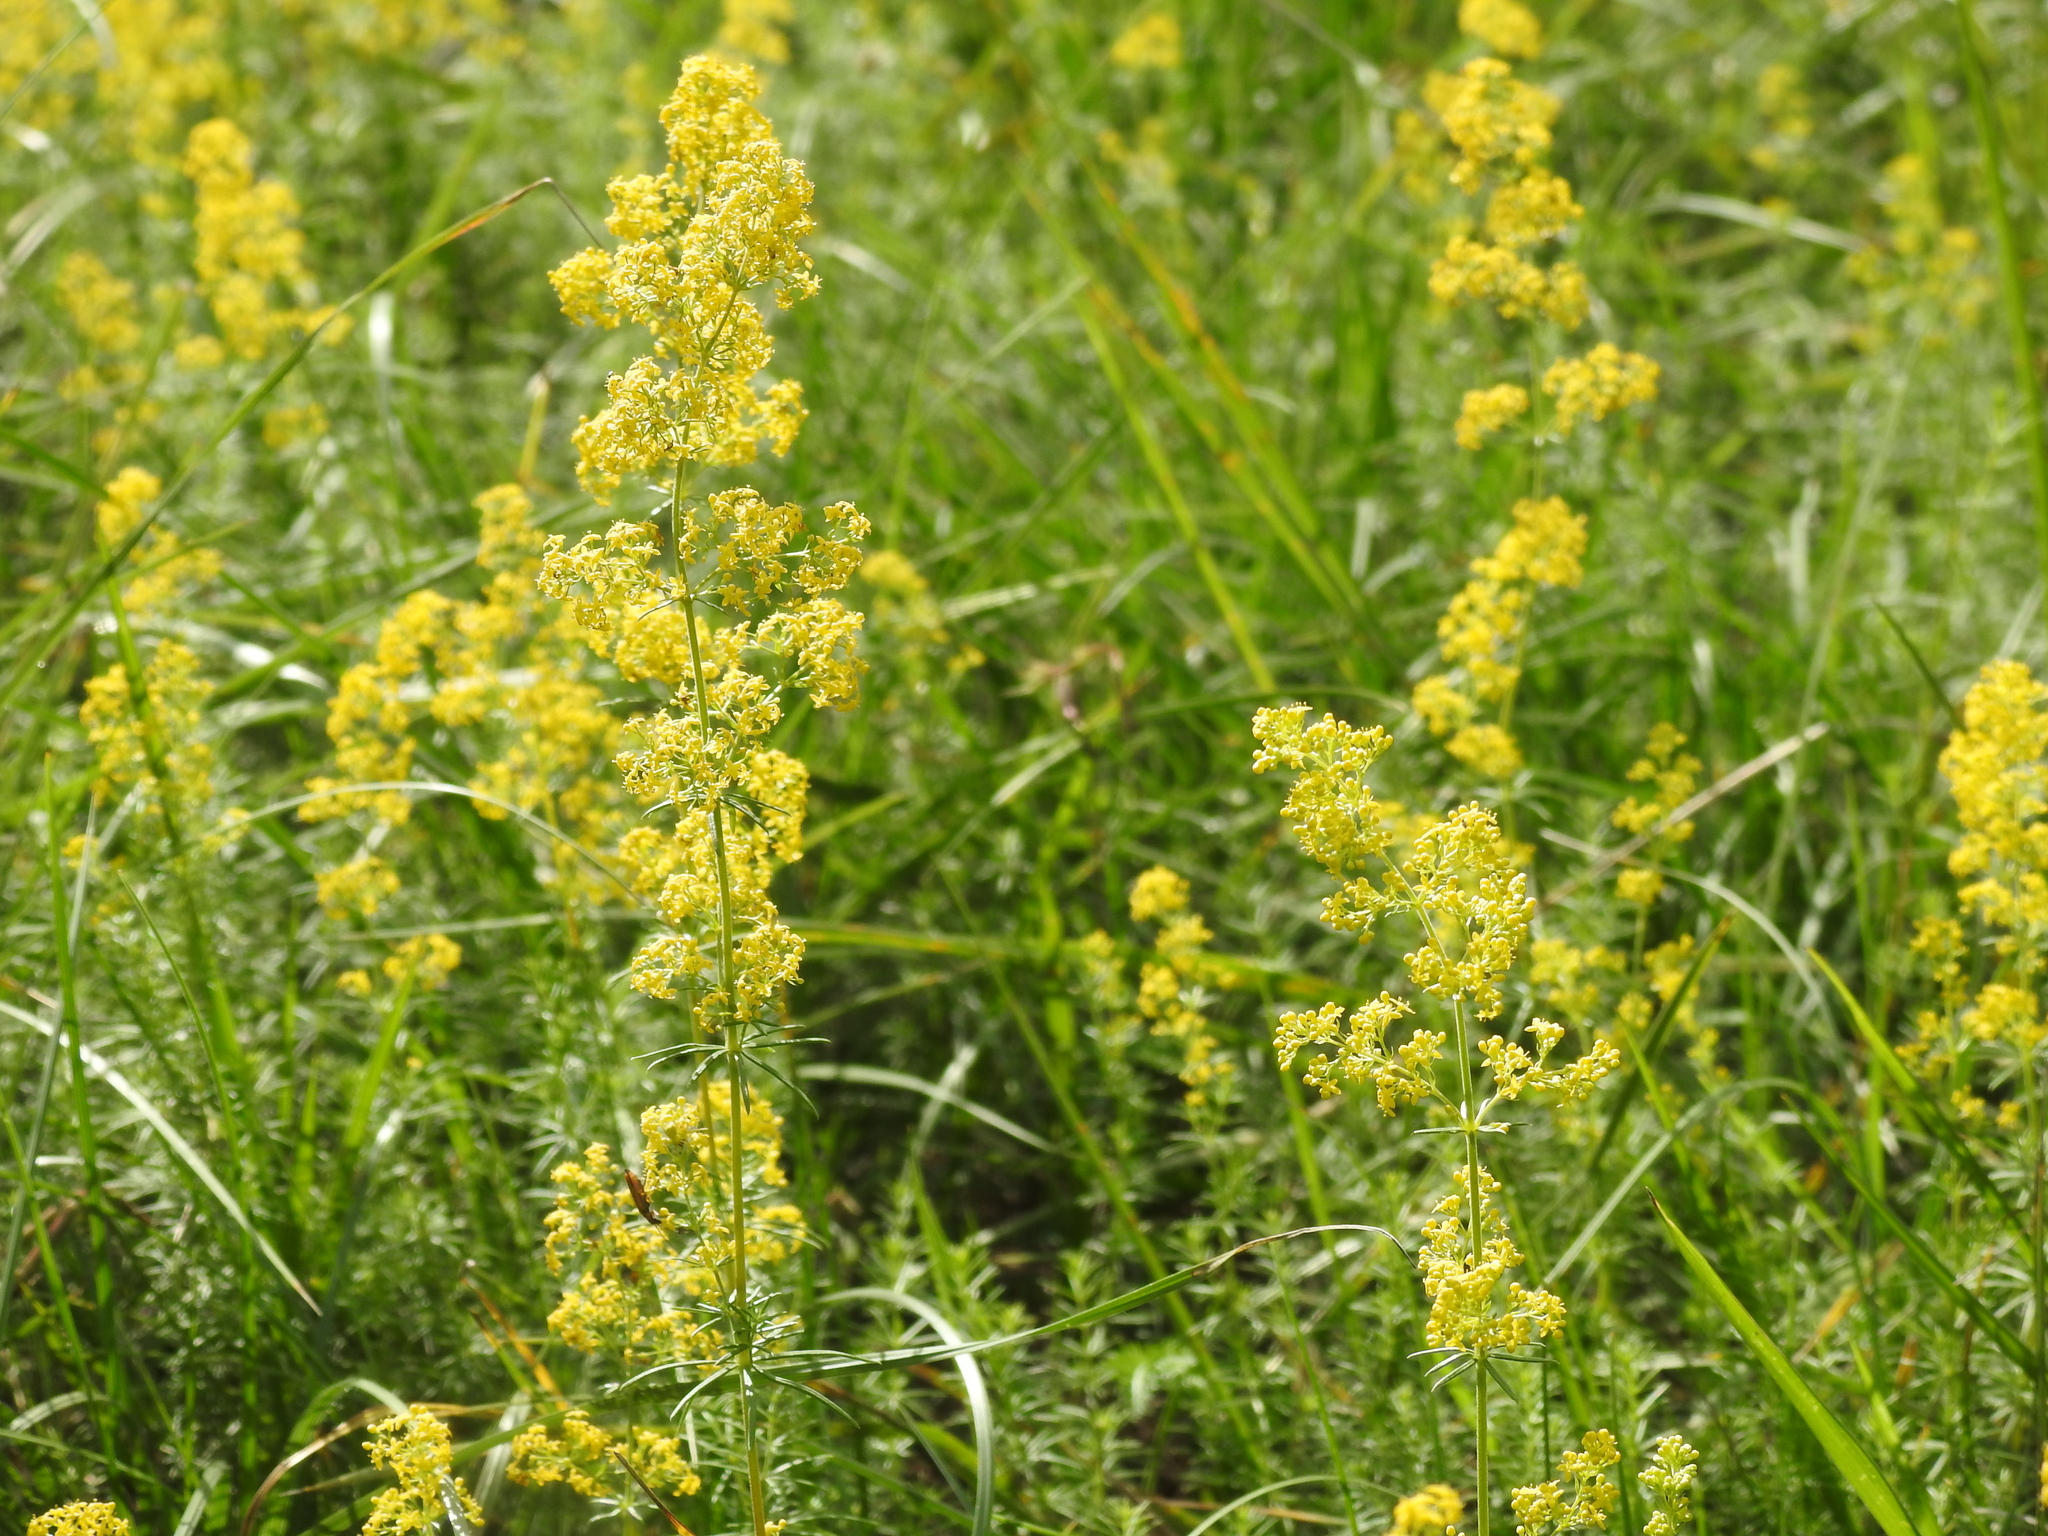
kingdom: Plantae
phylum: Tracheophyta
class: Magnoliopsida
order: Gentianales
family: Rubiaceae
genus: Galium
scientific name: Galium verum
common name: Lady's bedstraw
